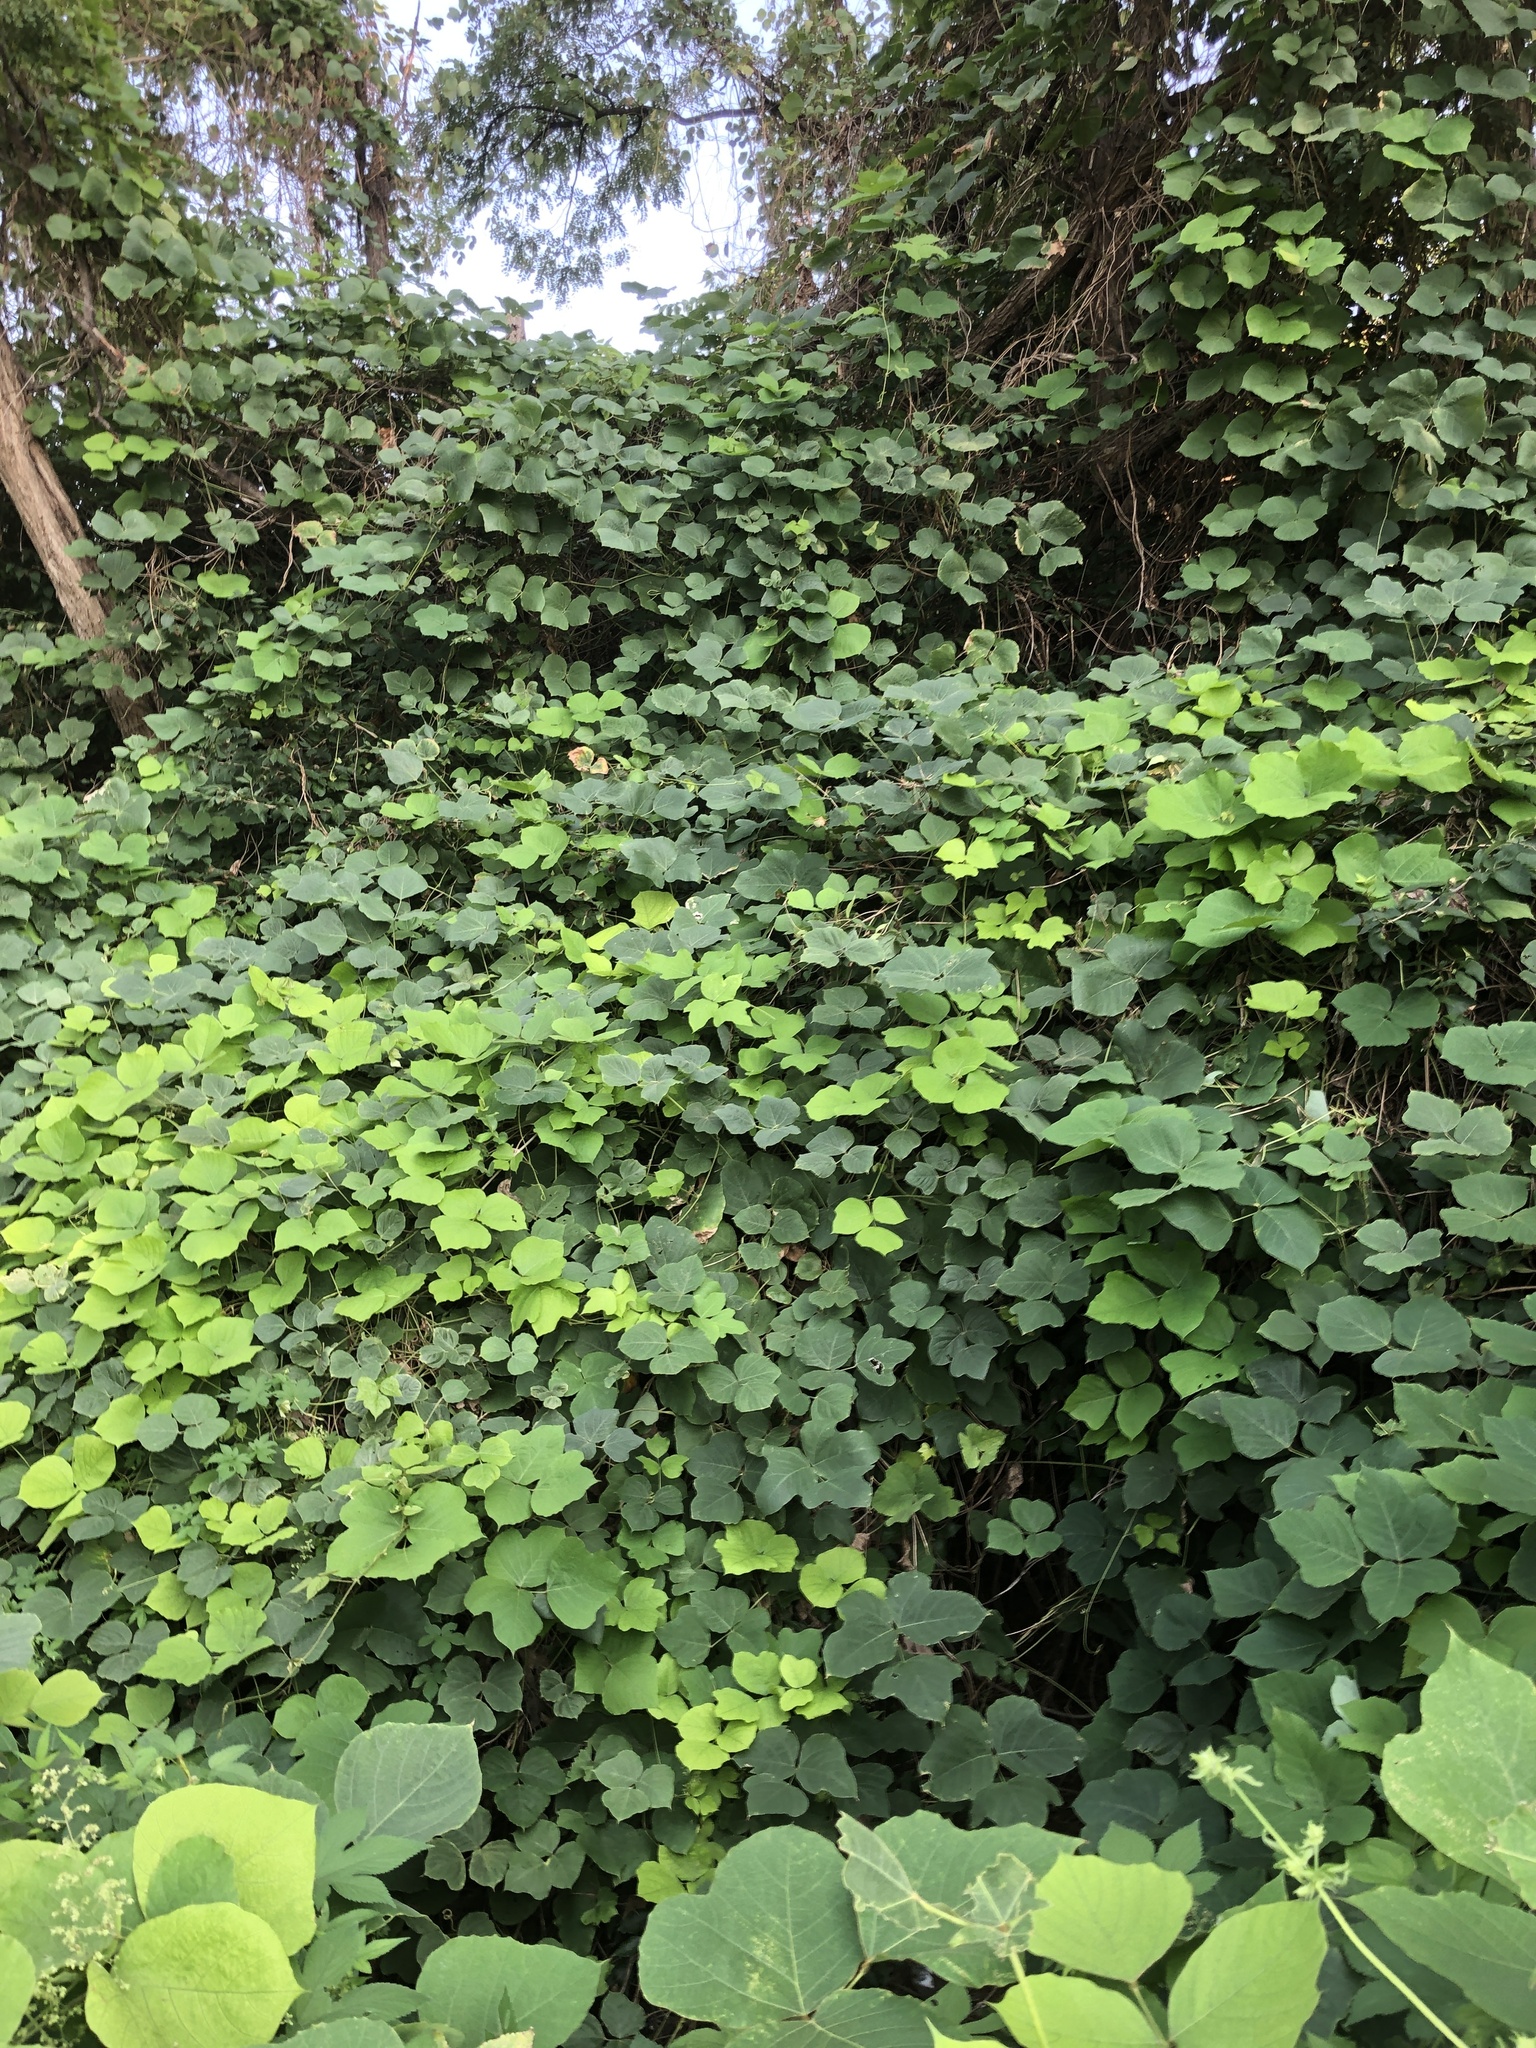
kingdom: Plantae
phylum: Tracheophyta
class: Magnoliopsida
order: Fabales
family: Fabaceae
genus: Pueraria
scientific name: Pueraria montana
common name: Kudzu
